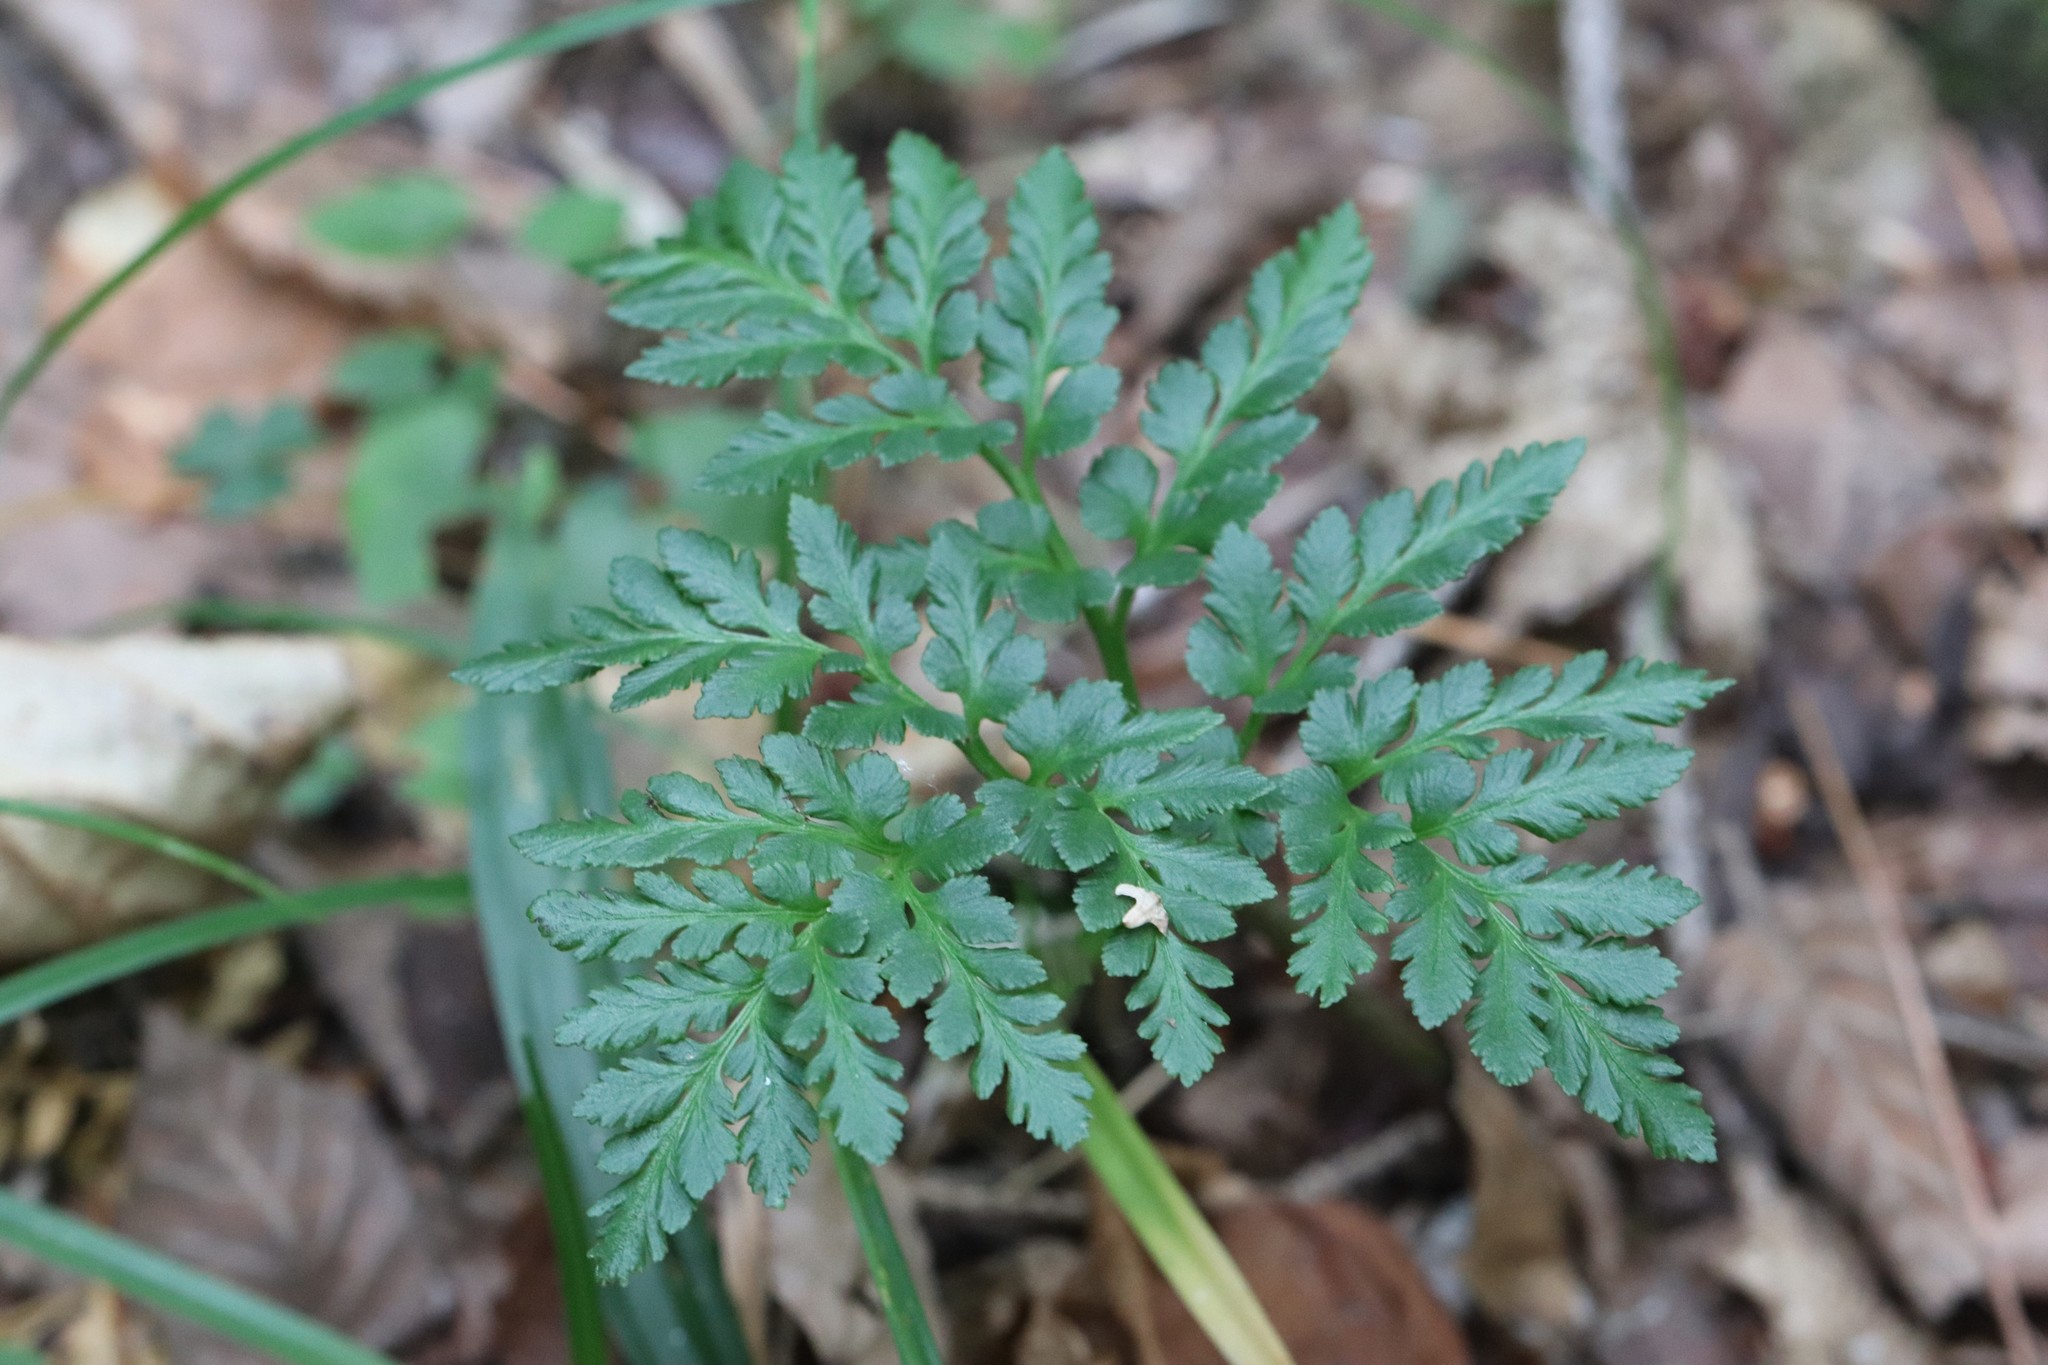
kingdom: Plantae
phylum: Tracheophyta
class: Polypodiopsida
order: Ophioglossales
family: Ophioglossaceae
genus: Sceptridium
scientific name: Sceptridium robustum
